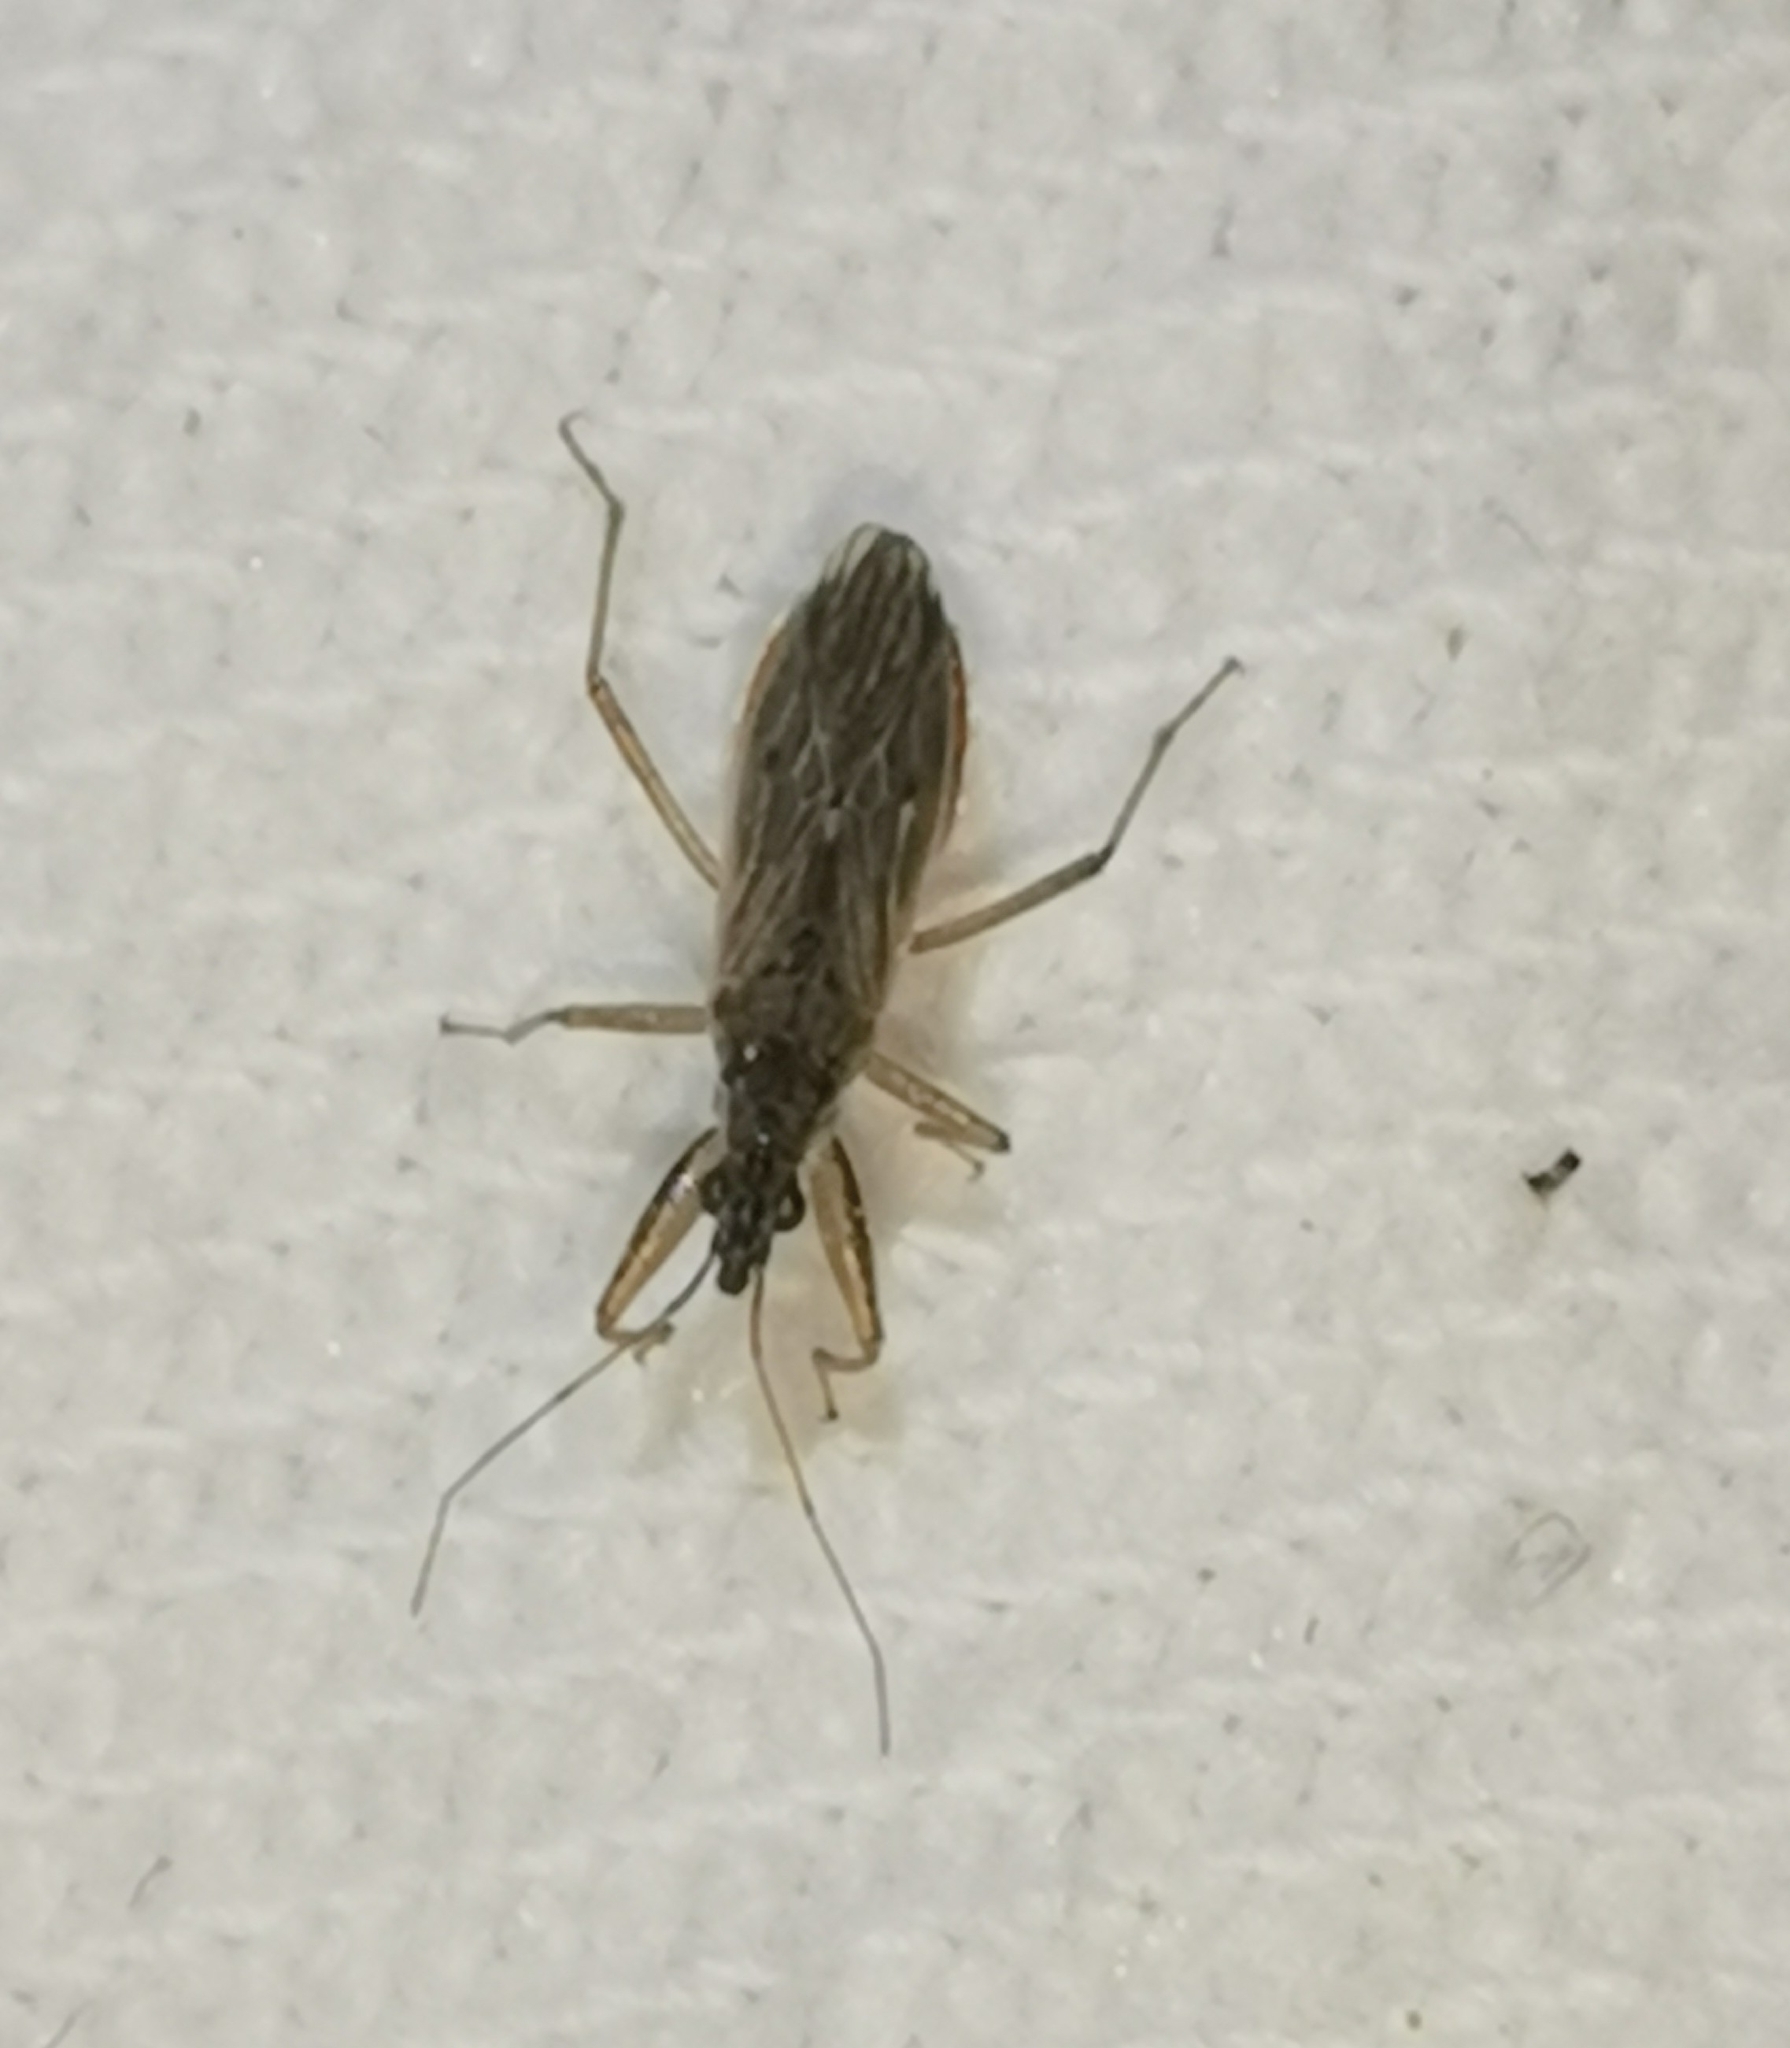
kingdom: Animalia
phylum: Arthropoda
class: Insecta
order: Hemiptera
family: Nabidae
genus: Nabis
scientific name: Nabis brevis
